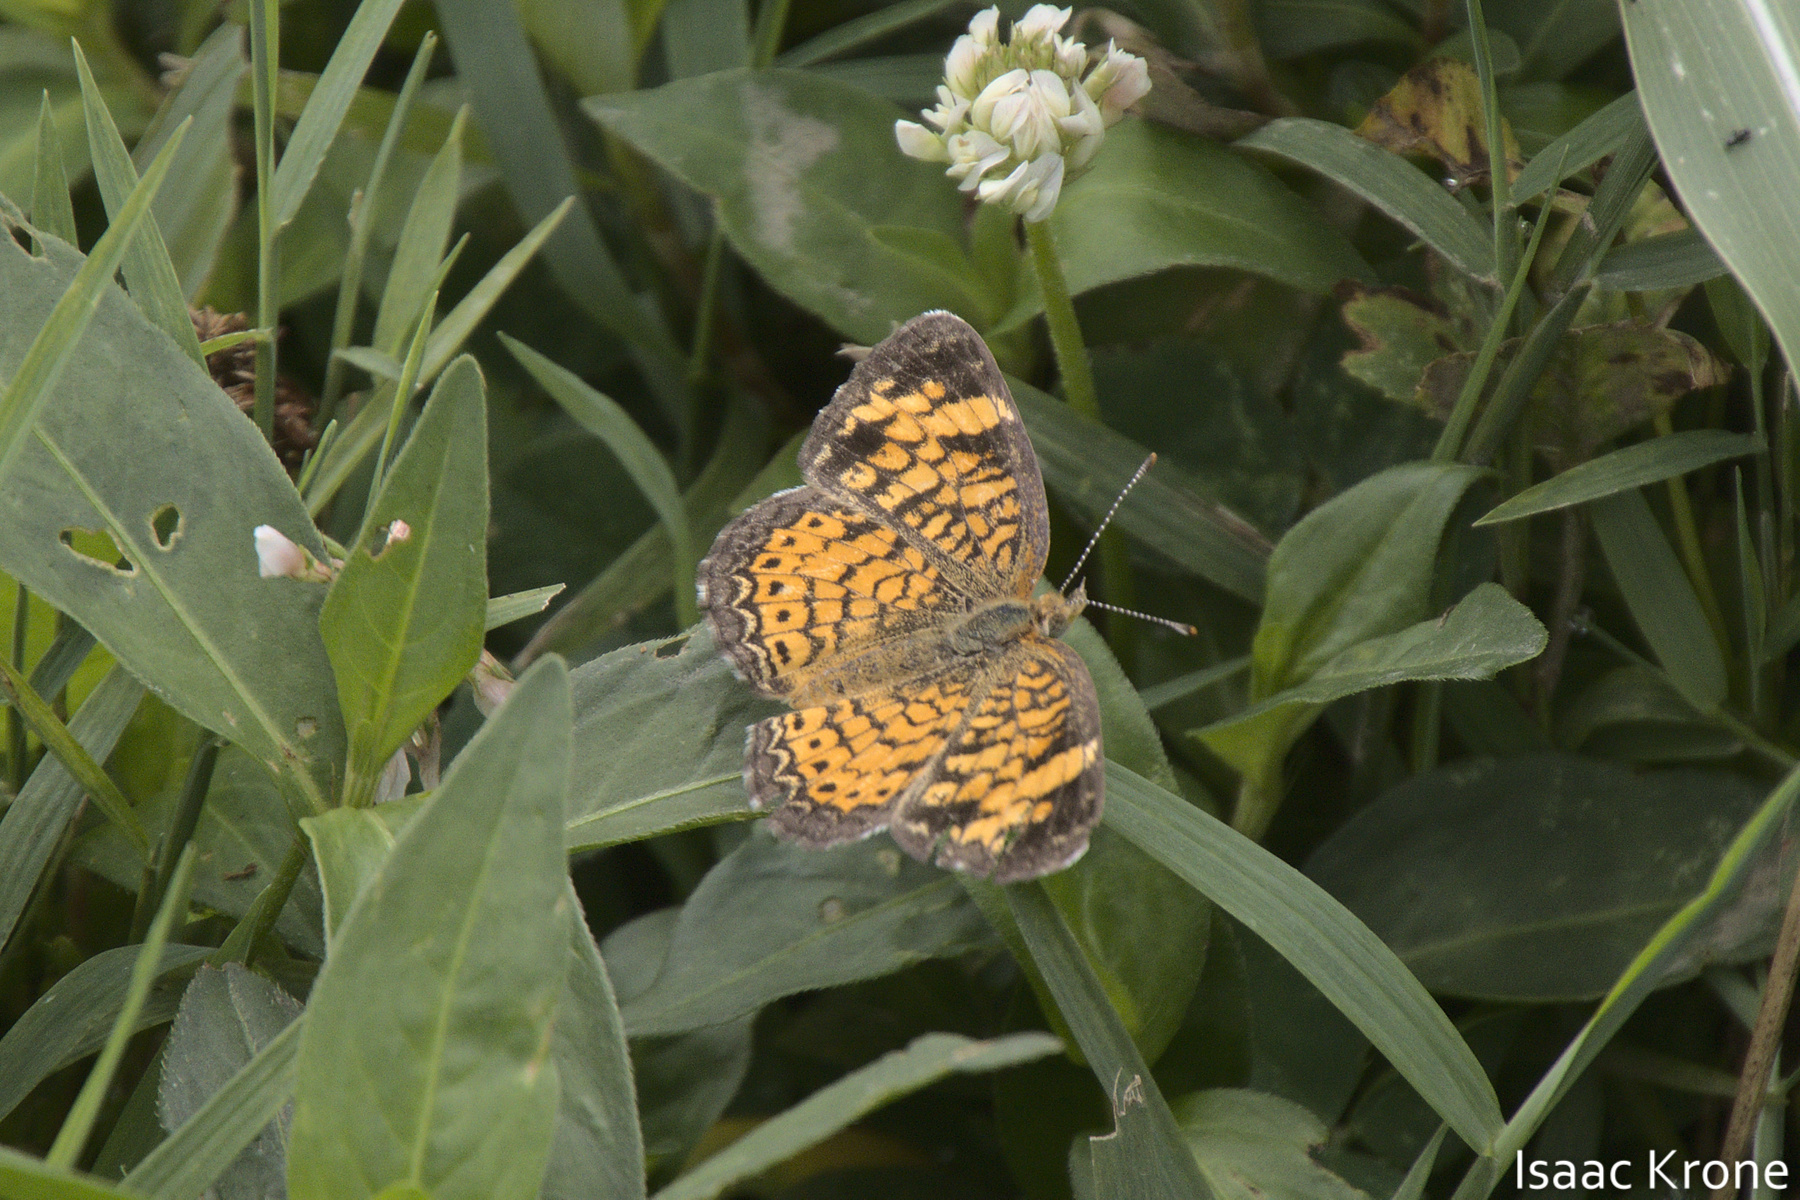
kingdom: Animalia
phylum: Arthropoda
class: Insecta
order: Lepidoptera
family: Nymphalidae
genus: Phyciodes
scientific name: Phyciodes tharos
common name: Pearl crescent
